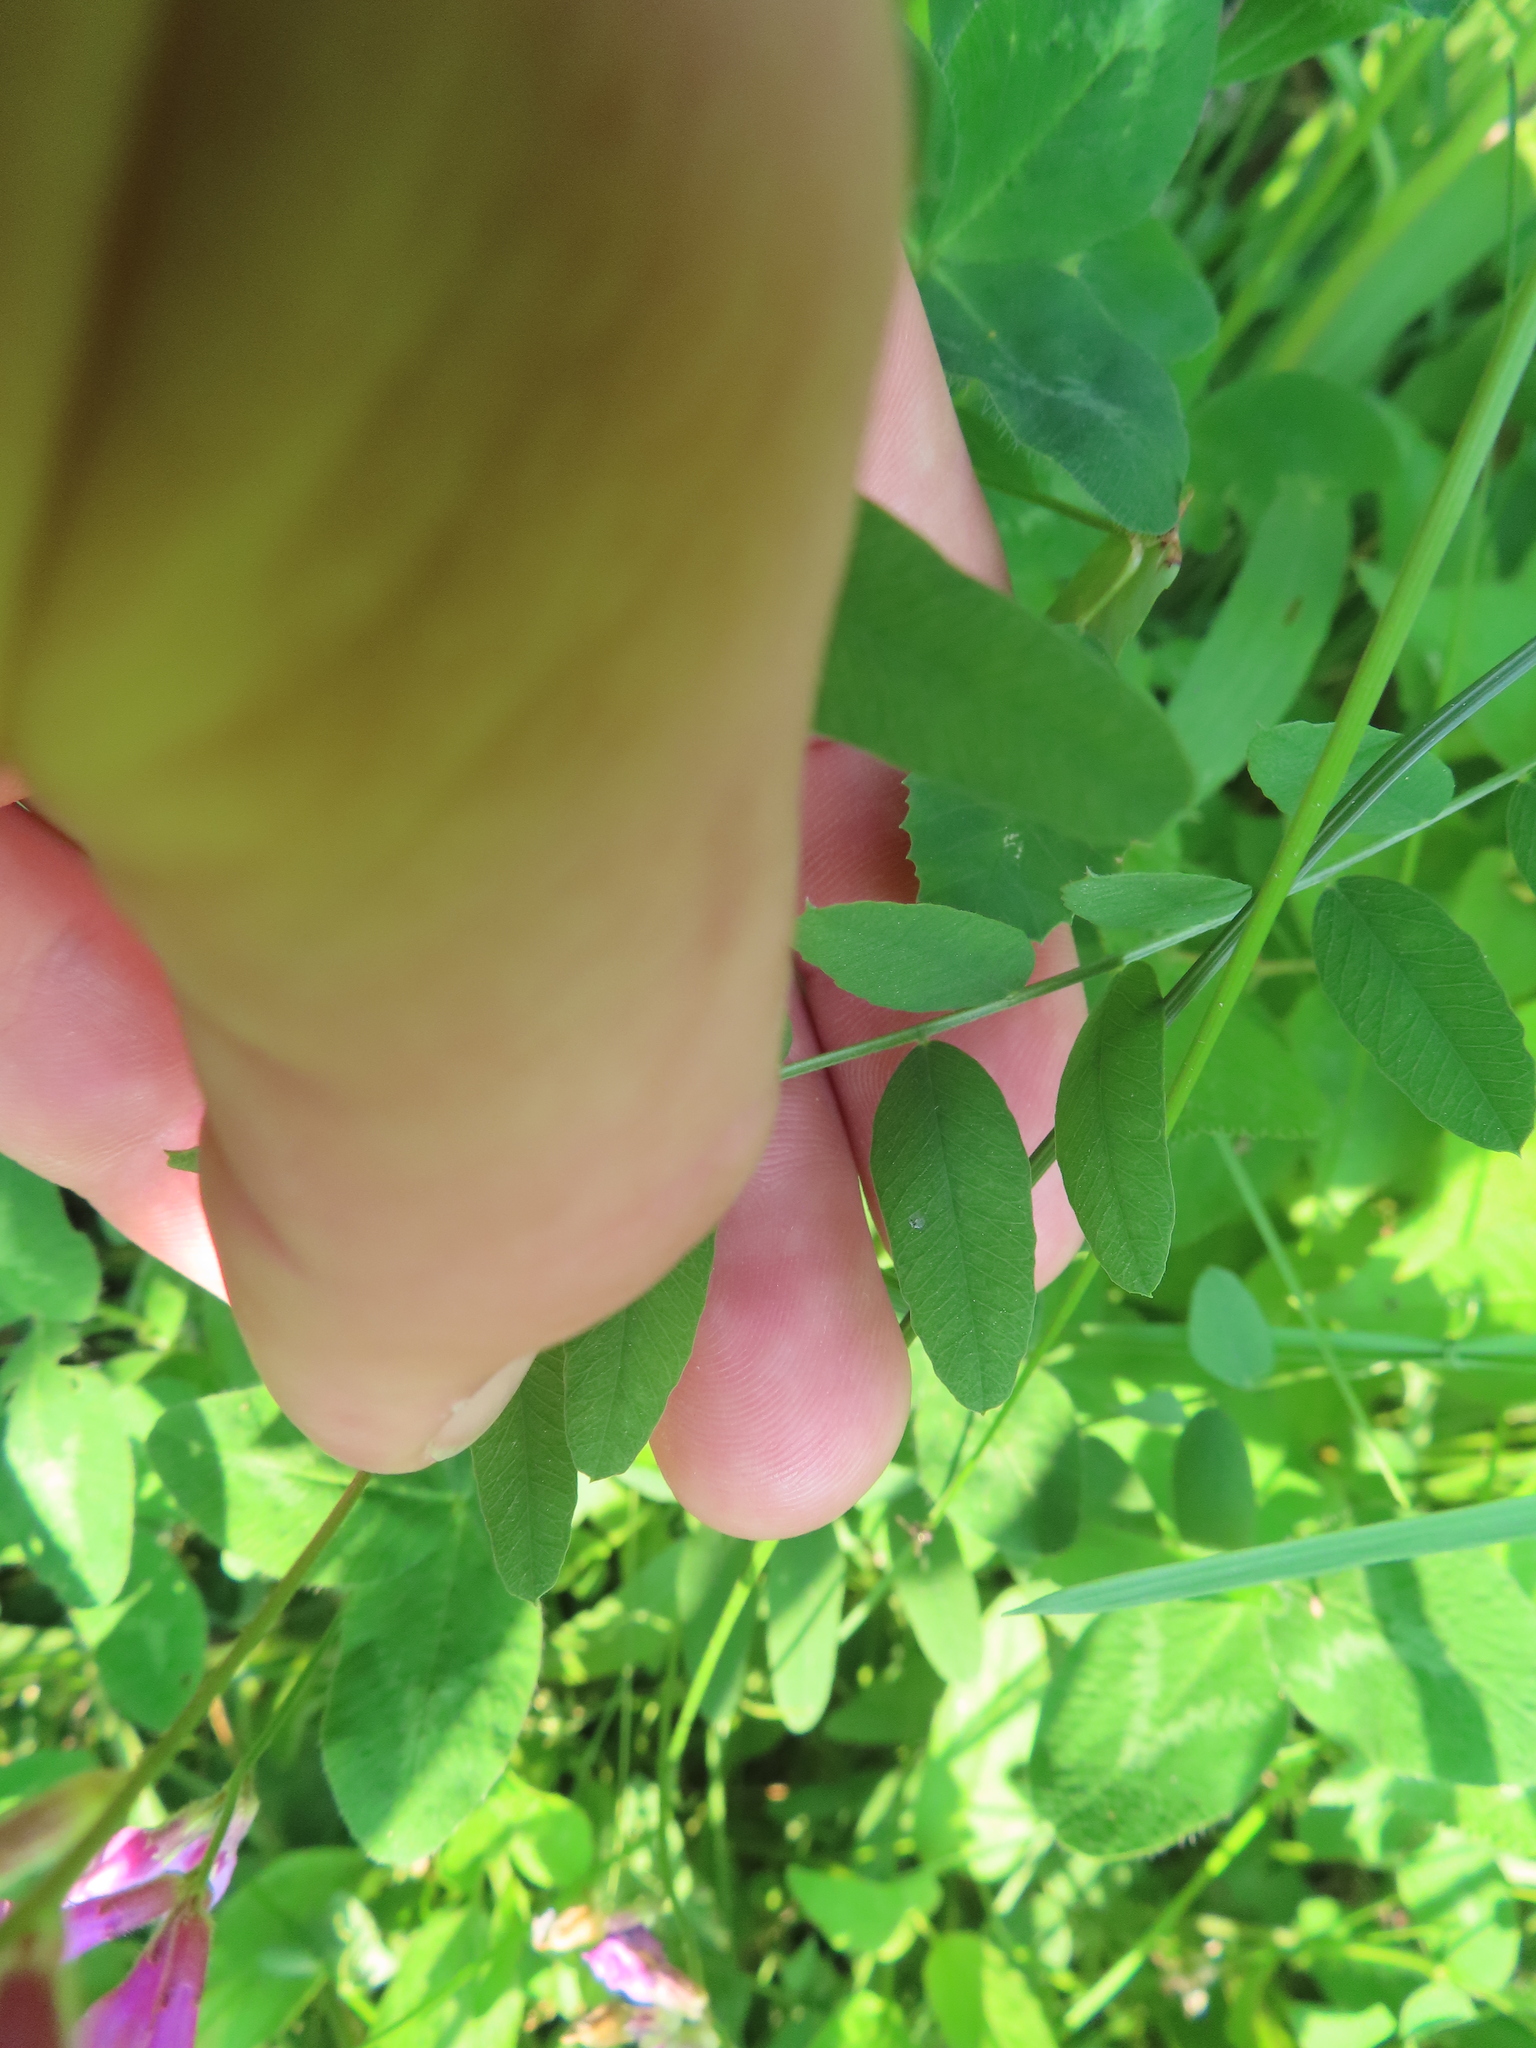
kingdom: Plantae
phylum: Tracheophyta
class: Magnoliopsida
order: Fabales
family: Fabaceae
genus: Vicia
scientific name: Vicia americana
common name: American vetch
